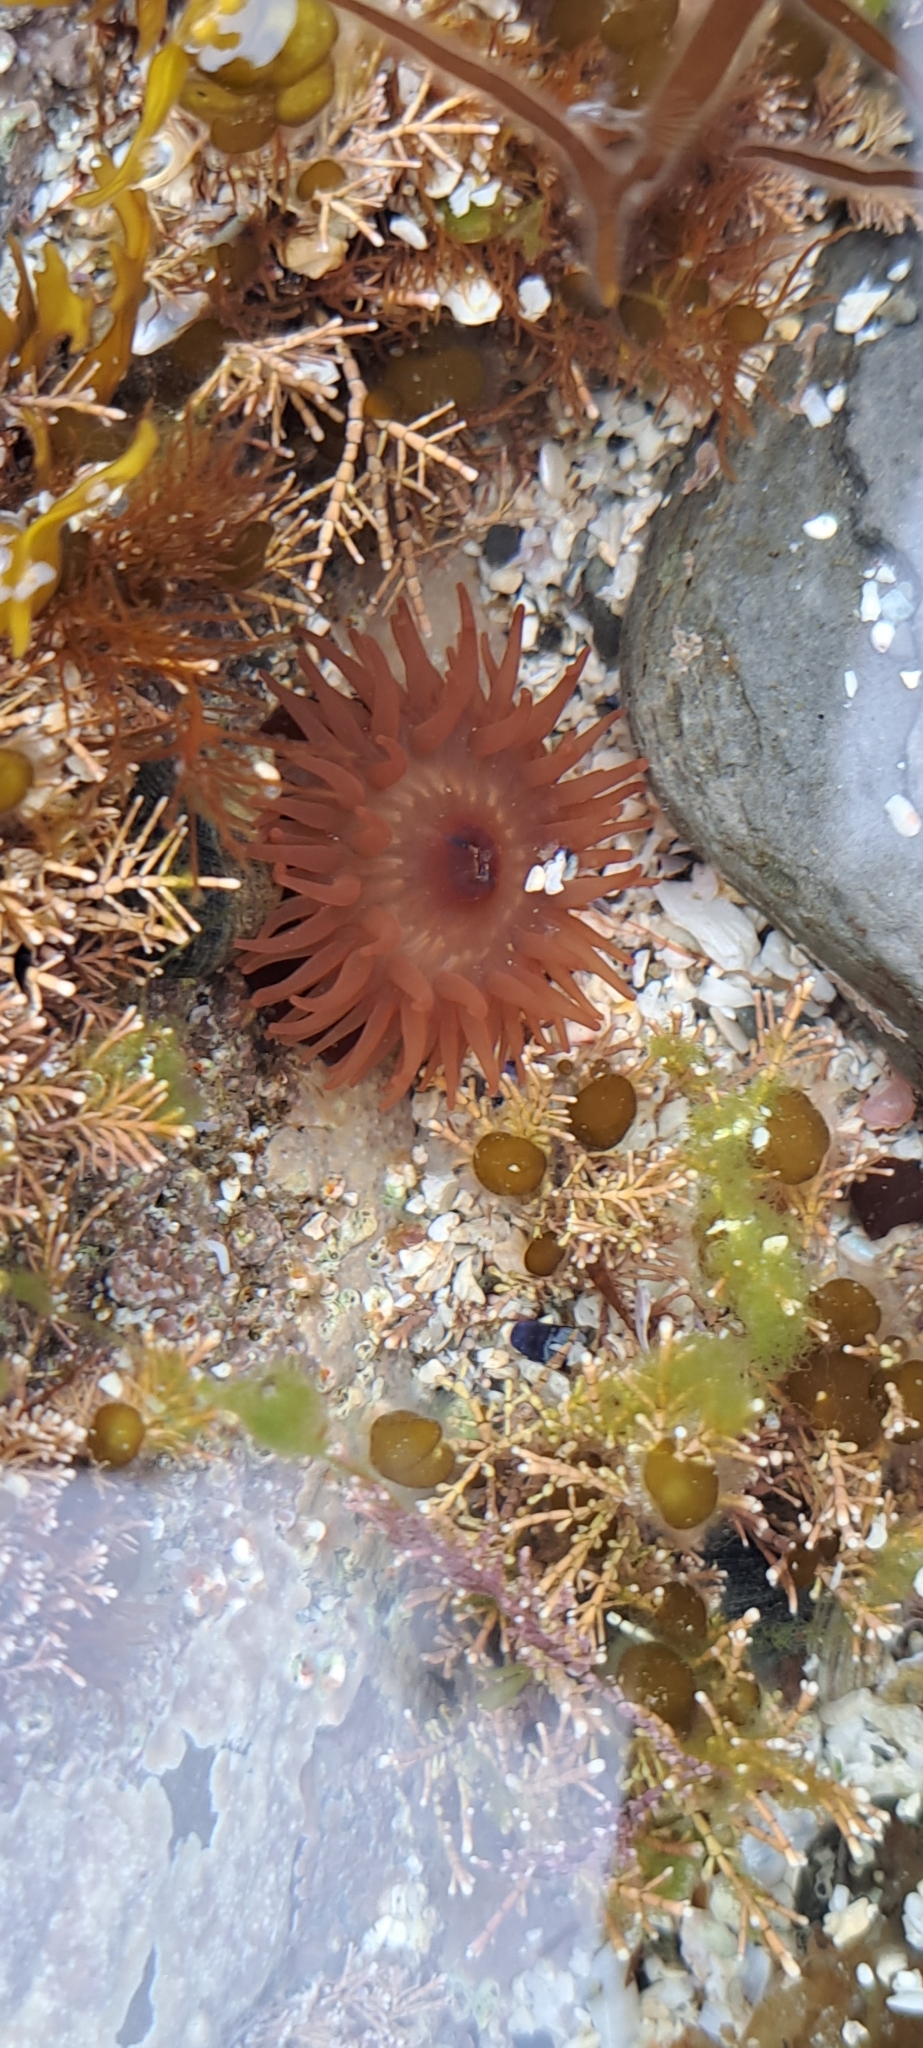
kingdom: Animalia
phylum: Cnidaria
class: Anthozoa
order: Actiniaria
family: Actiniidae
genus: Actinia
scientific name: Actinia equina
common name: Beadlet anemone
